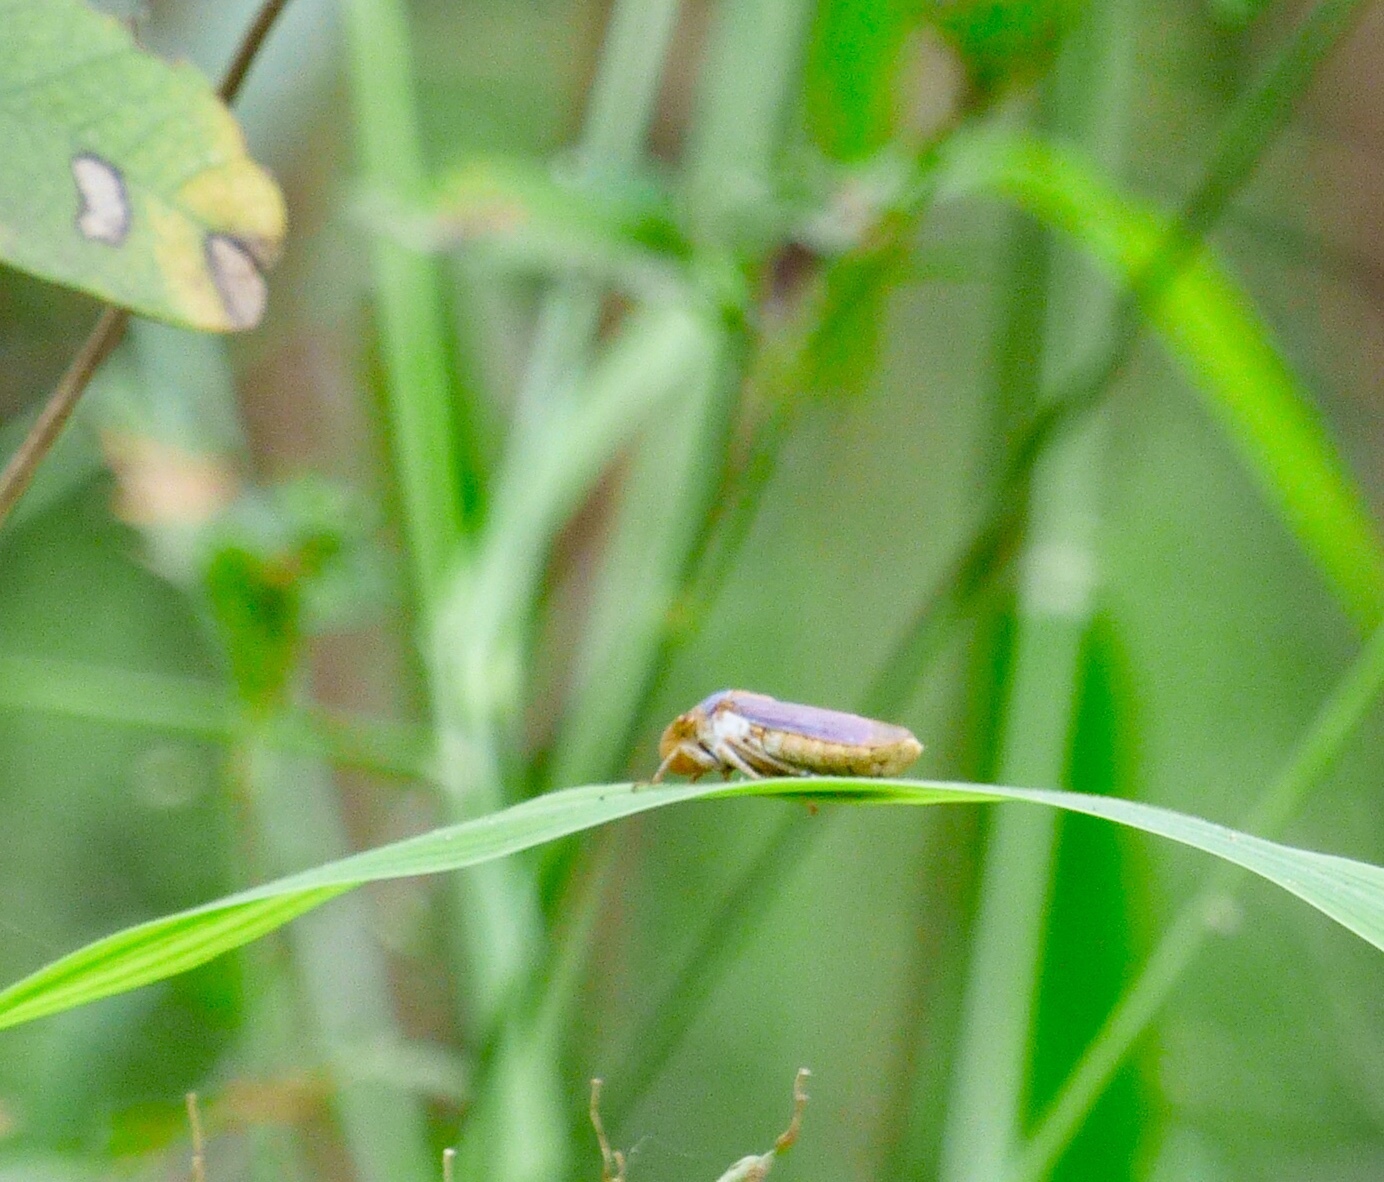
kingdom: Animalia
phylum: Arthropoda
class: Insecta
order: Hemiptera
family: Cicadellidae
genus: Oncometopia
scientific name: Oncometopia hamiltoni
